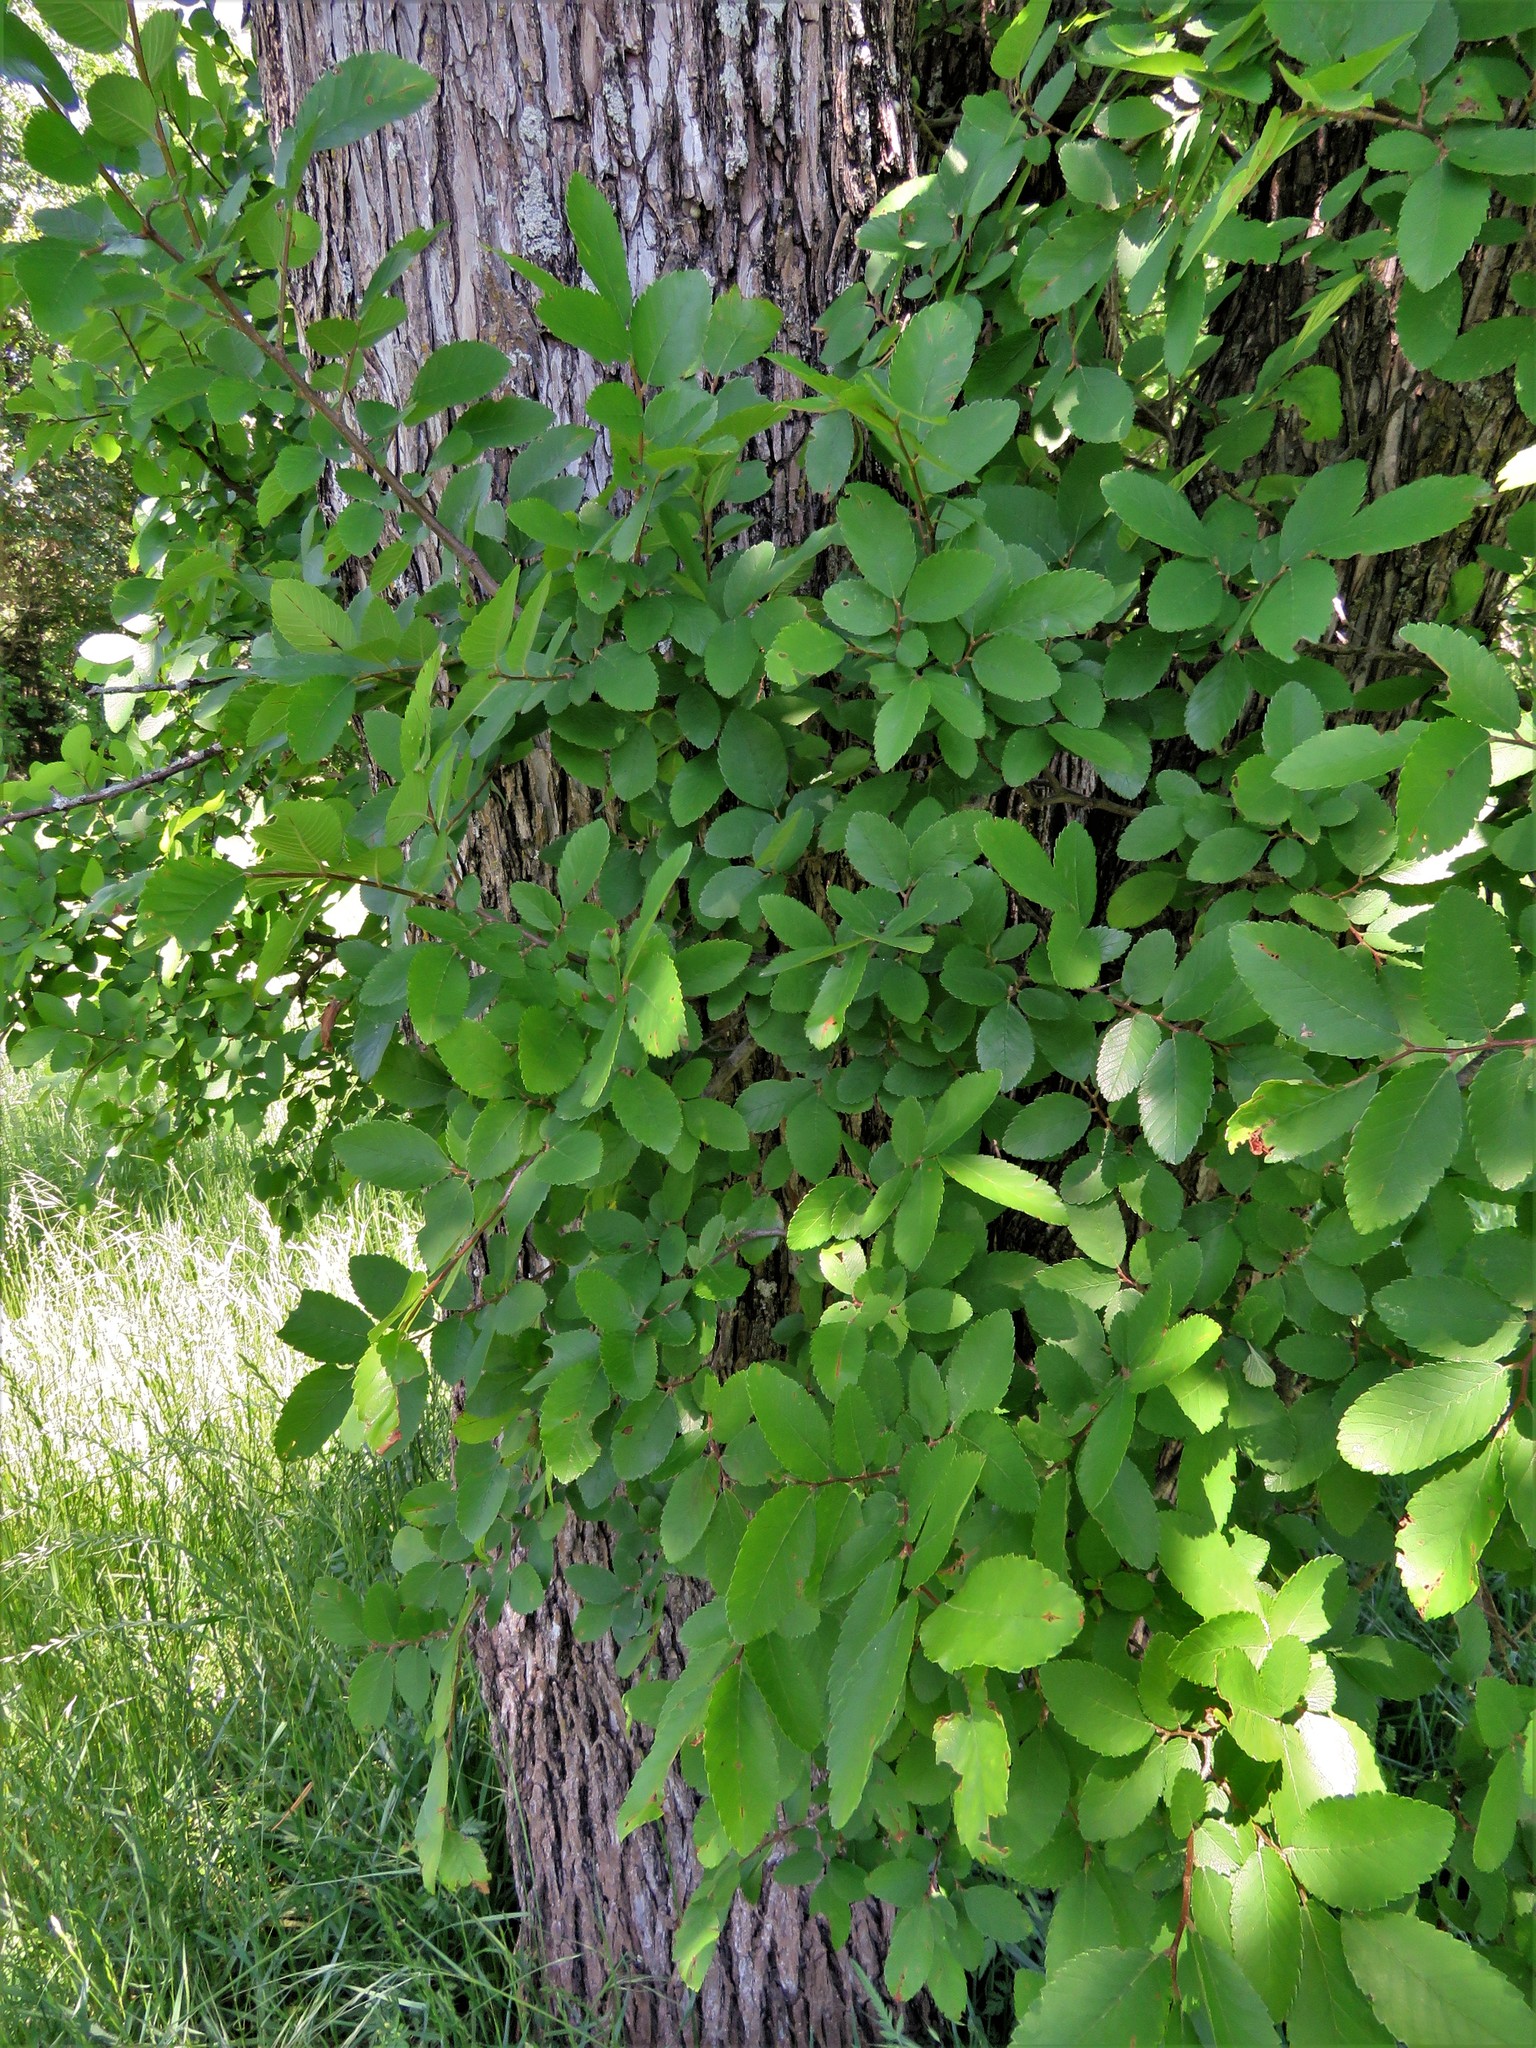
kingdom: Plantae
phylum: Tracheophyta
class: Magnoliopsida
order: Rosales
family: Ulmaceae
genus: Ulmus
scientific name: Ulmus crassifolia
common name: Basket elm
